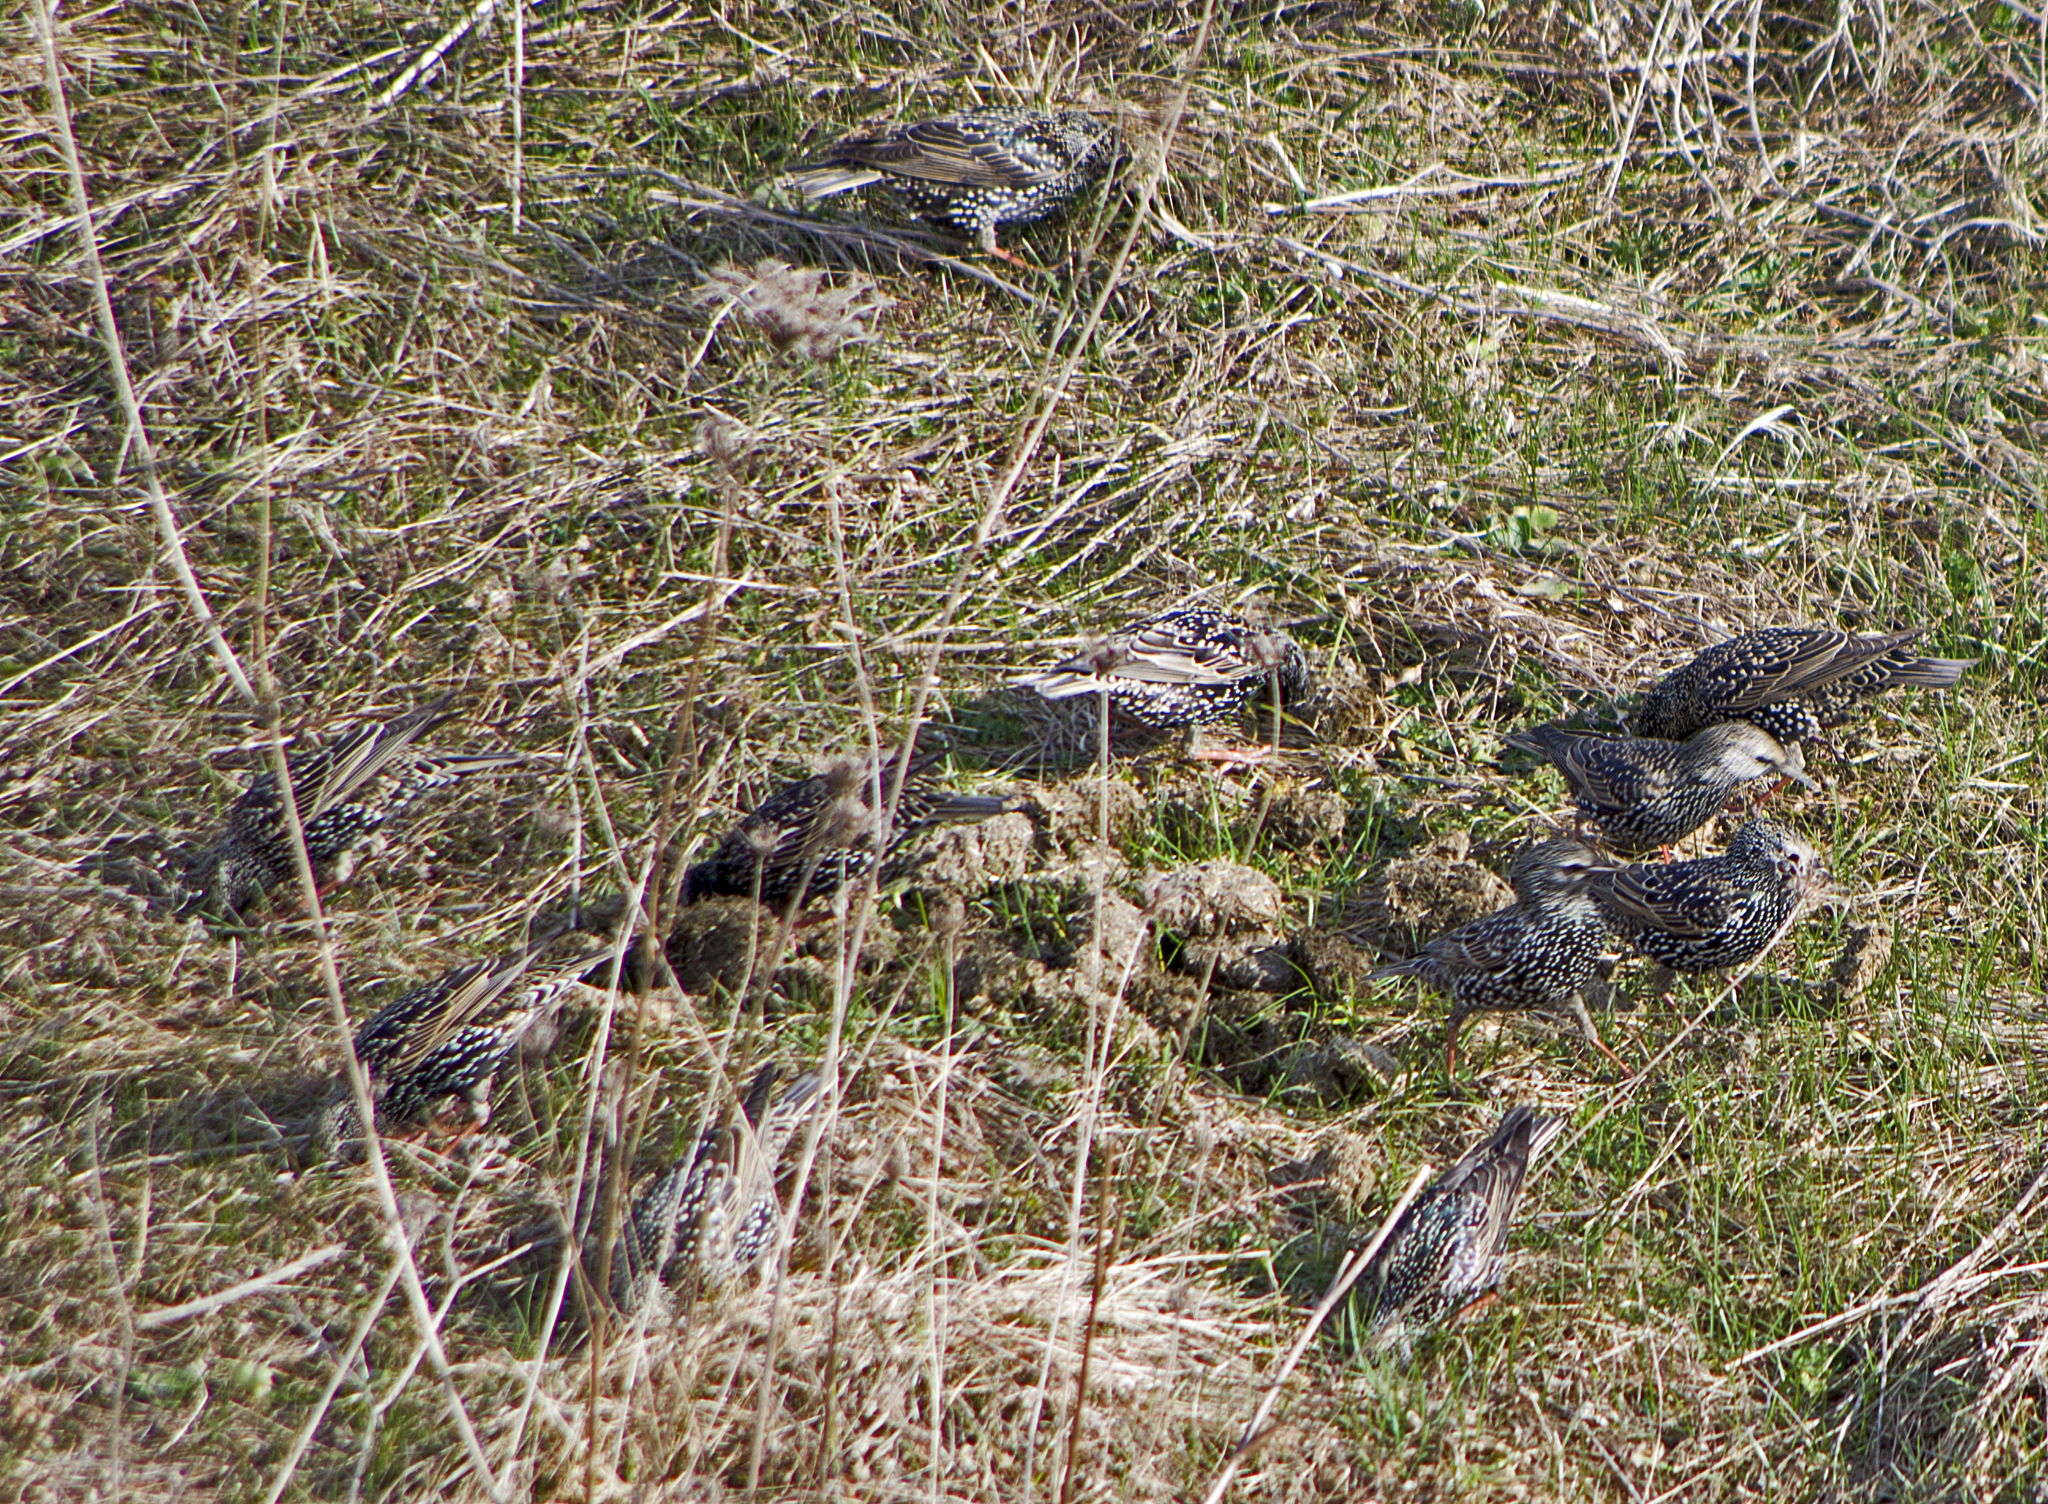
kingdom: Animalia
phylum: Chordata
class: Aves
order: Passeriformes
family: Sturnidae
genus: Sturnus
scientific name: Sturnus vulgaris
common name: Common starling
